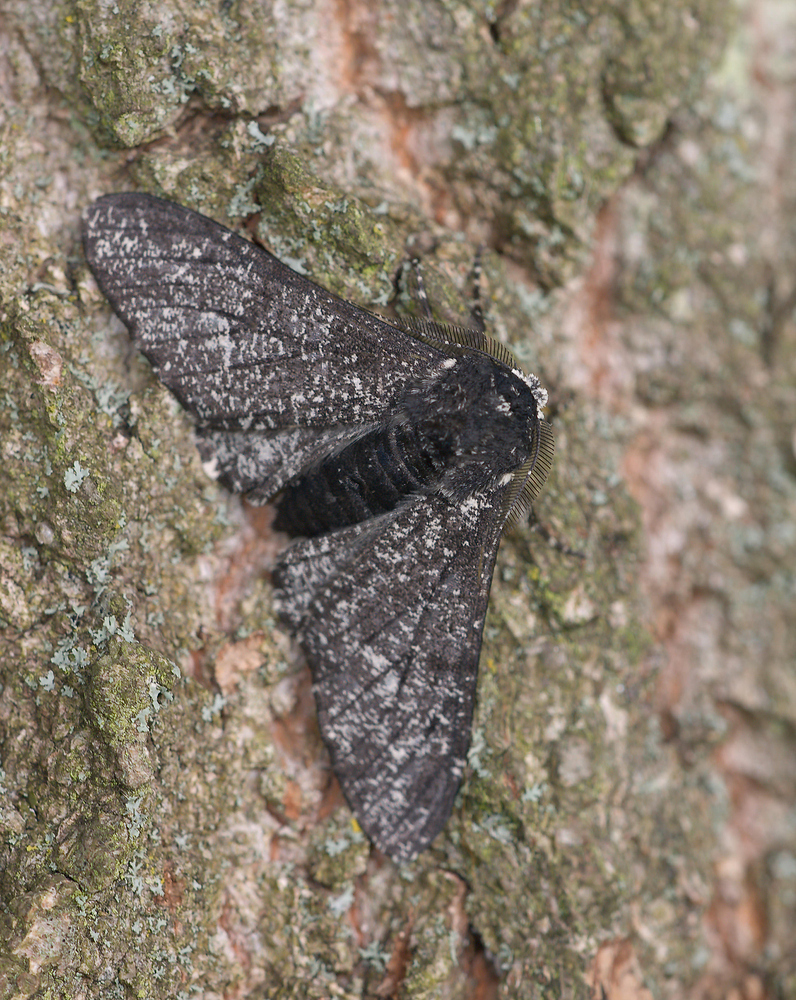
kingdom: Animalia
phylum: Arthropoda
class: Insecta
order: Lepidoptera
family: Geometridae
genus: Biston
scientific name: Biston betularia
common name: Peppered moth
